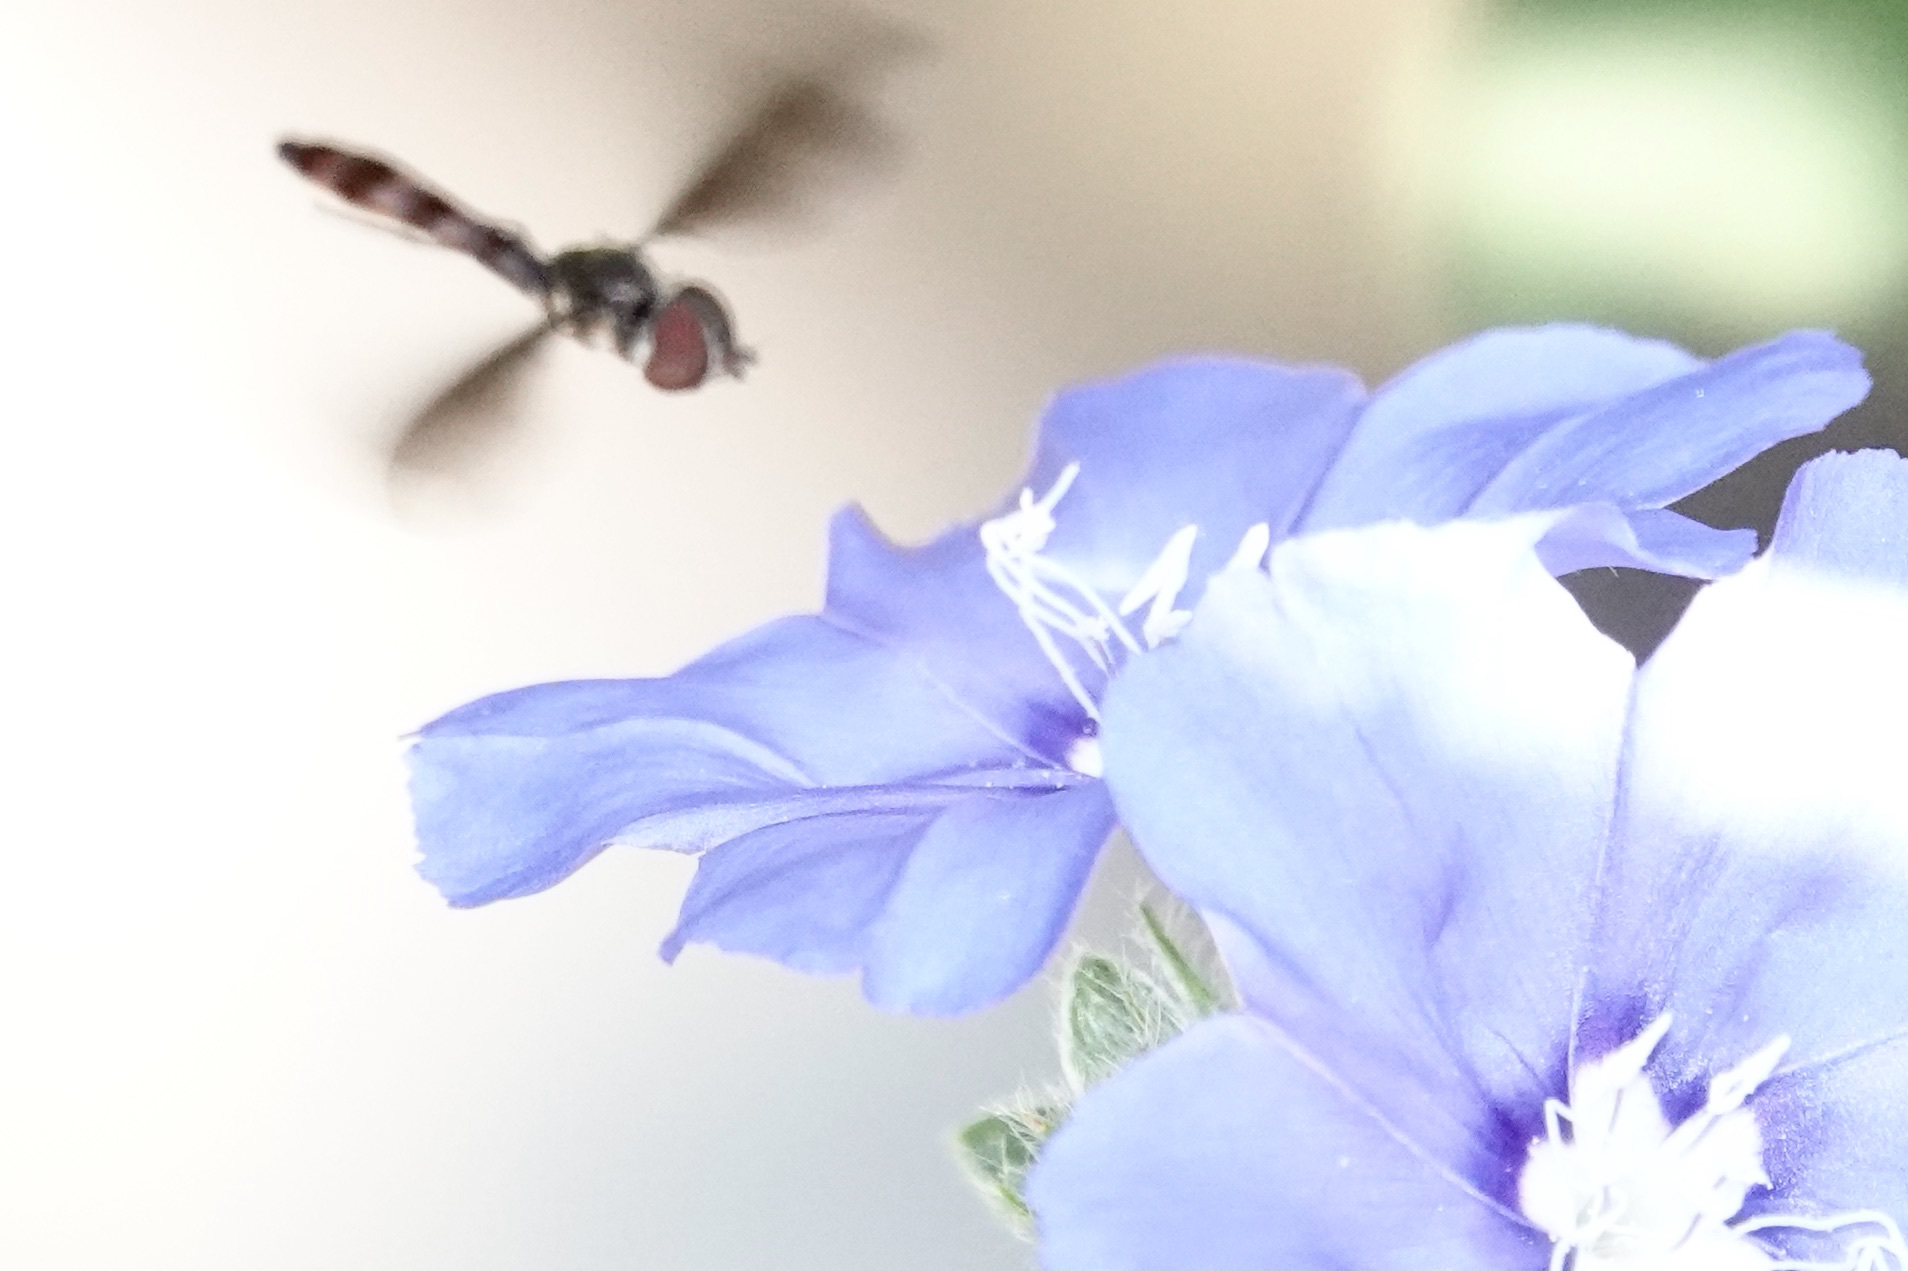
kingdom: Animalia
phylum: Arthropoda
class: Insecta
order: Diptera
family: Syrphidae
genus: Ocyptamus
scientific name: Ocyptamus fuscipennis
